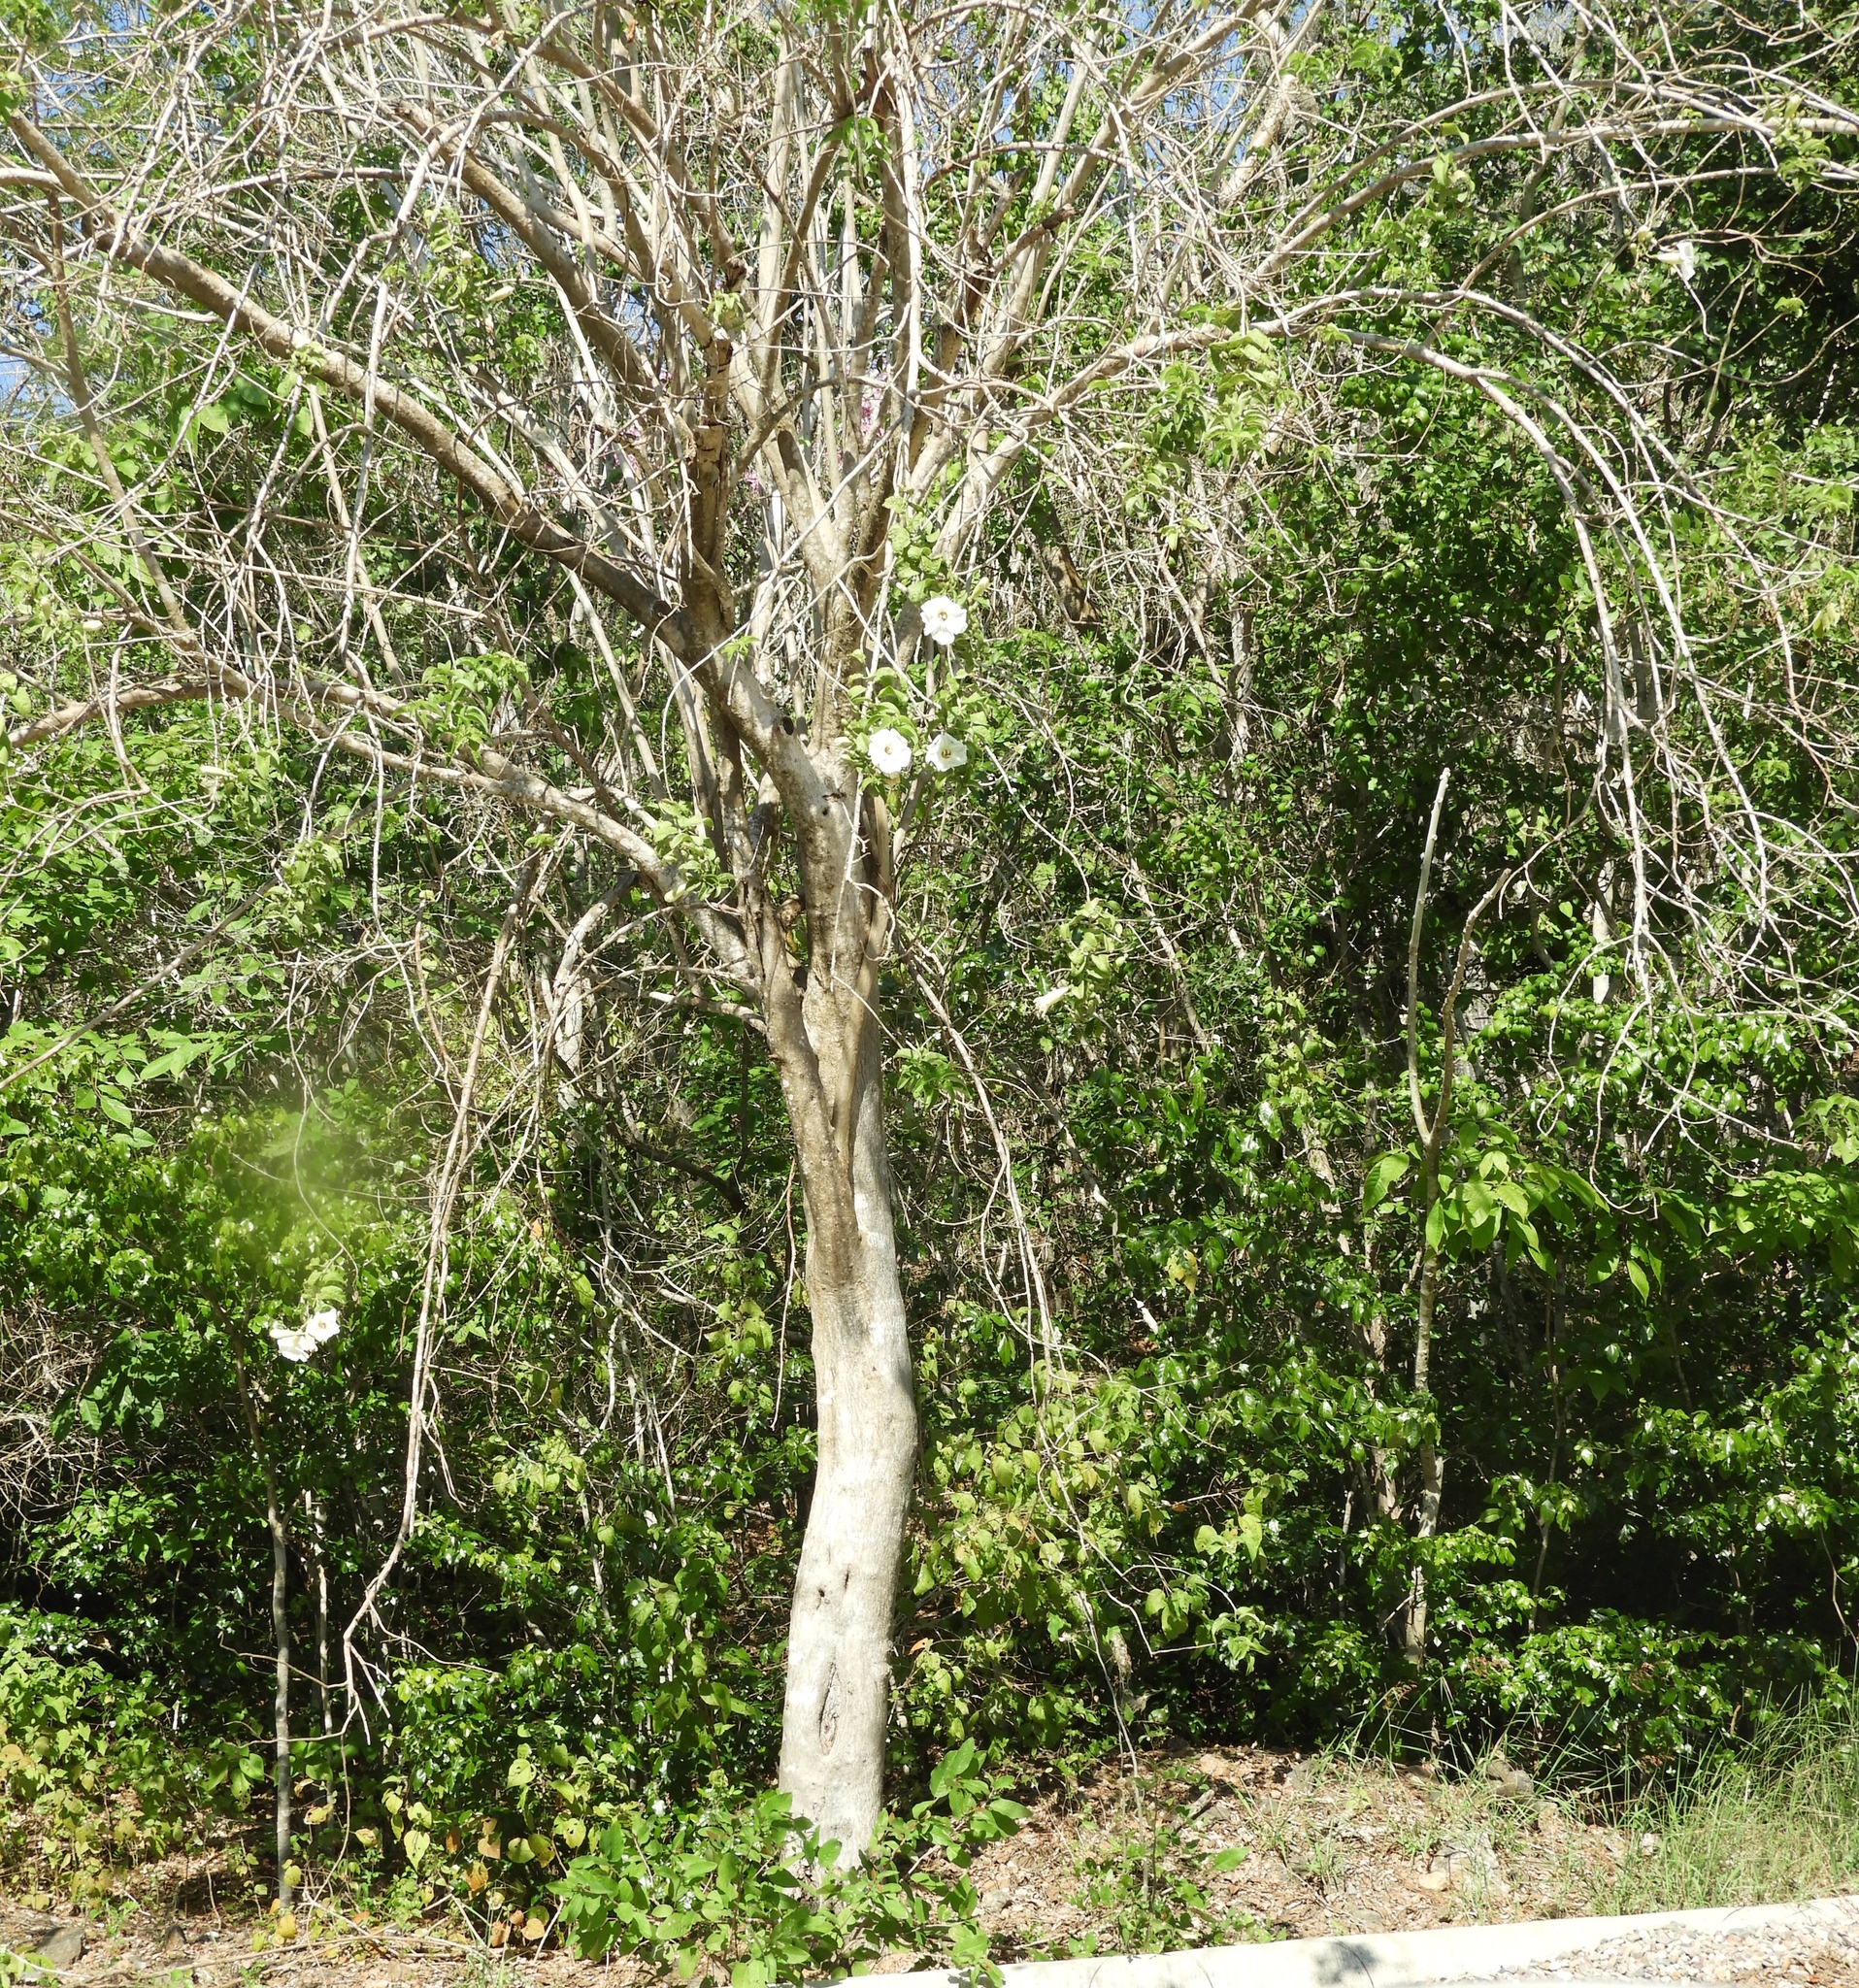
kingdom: Plantae
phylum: Tracheophyta
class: Magnoliopsida
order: Solanales
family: Convolvulaceae
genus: Ipomoea
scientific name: Ipomoea arborescens
